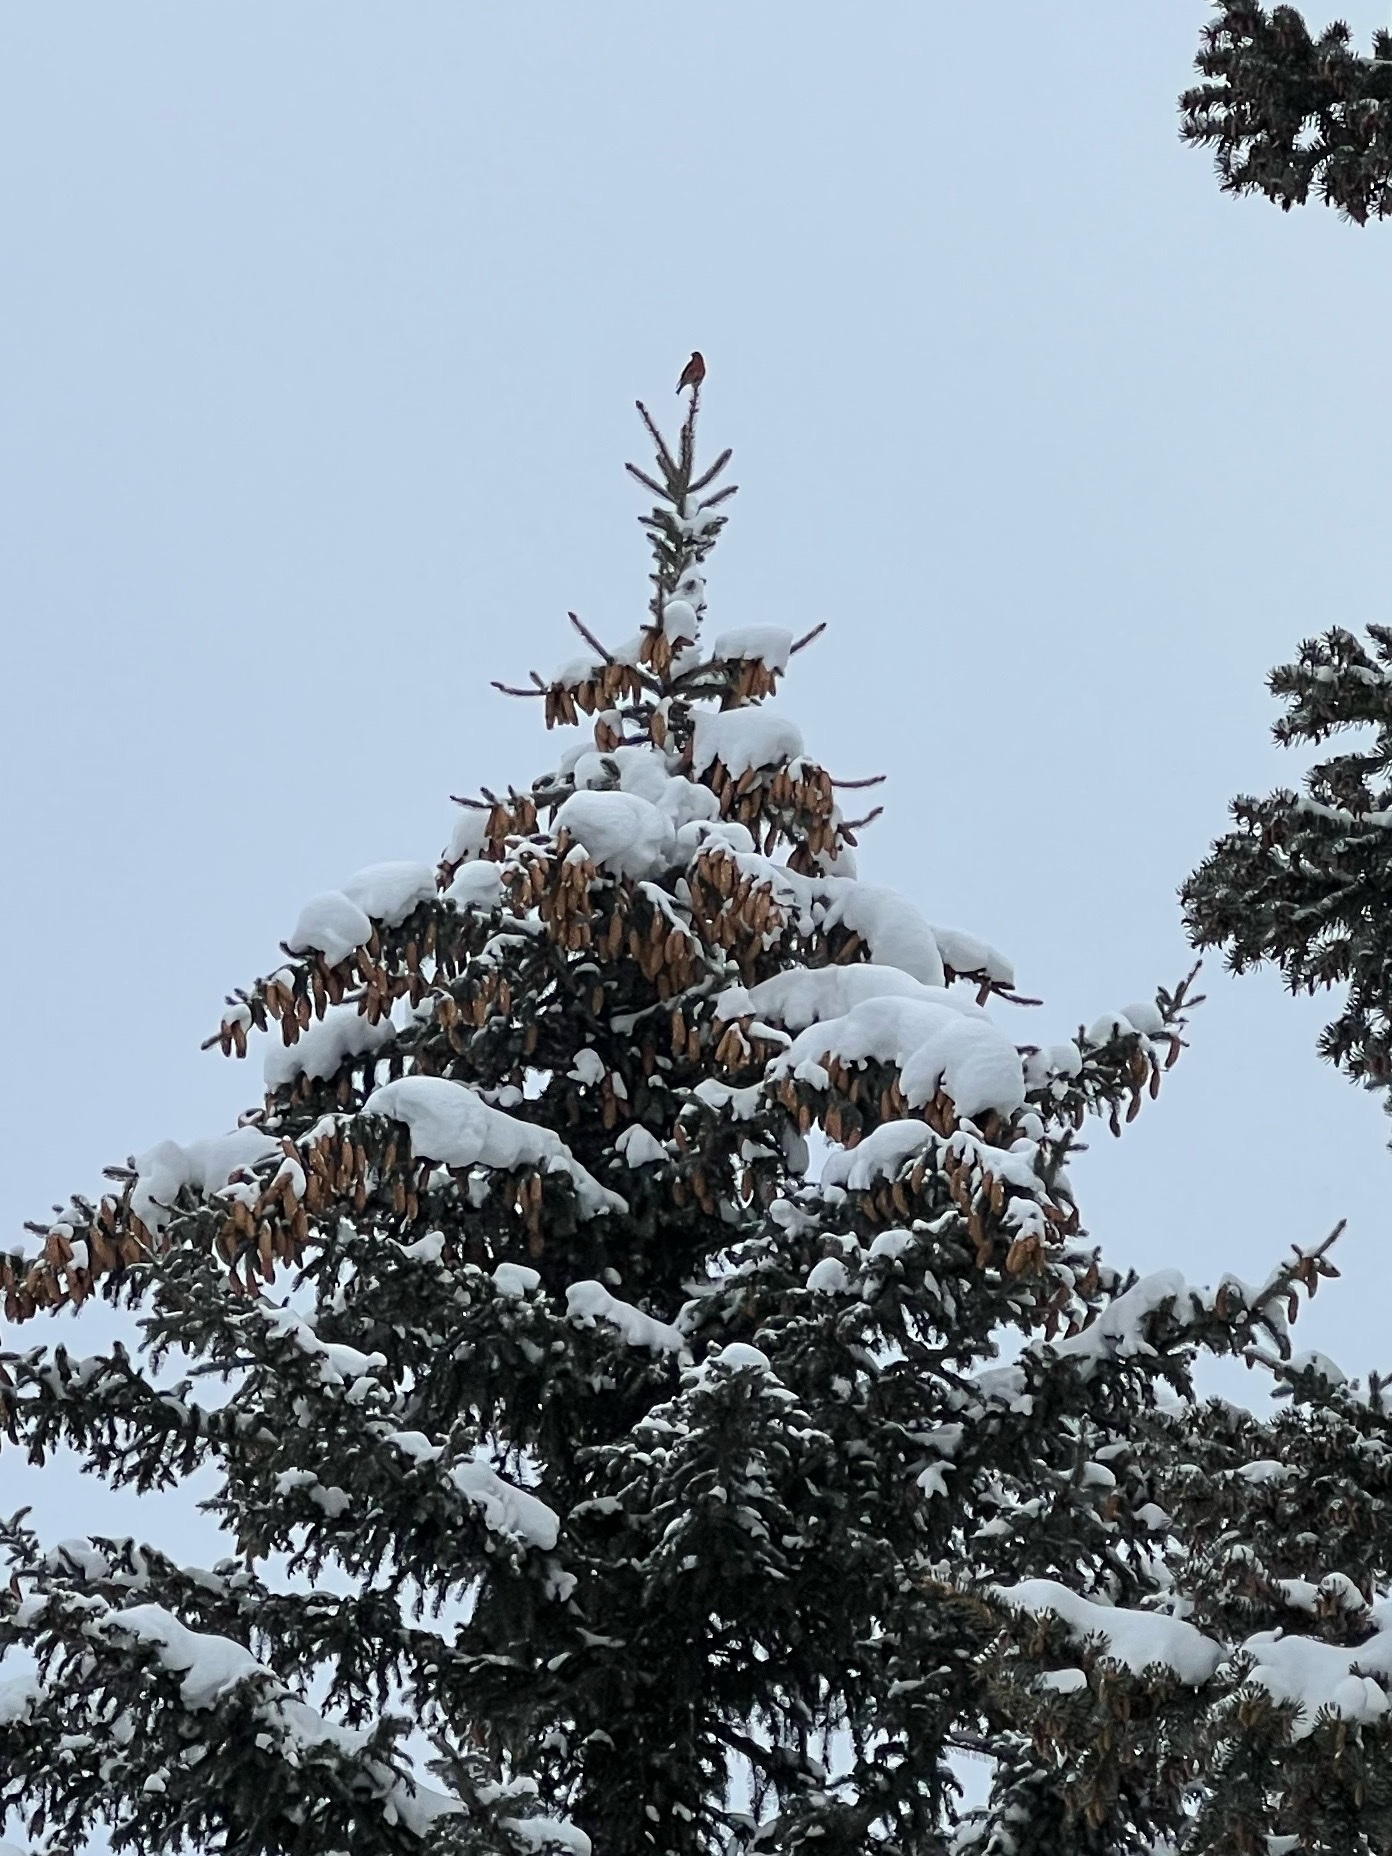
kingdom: Animalia
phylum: Chordata
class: Aves
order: Passeriformes
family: Fringillidae
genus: Loxia
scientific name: Loxia curvirostra
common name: Red crossbill
